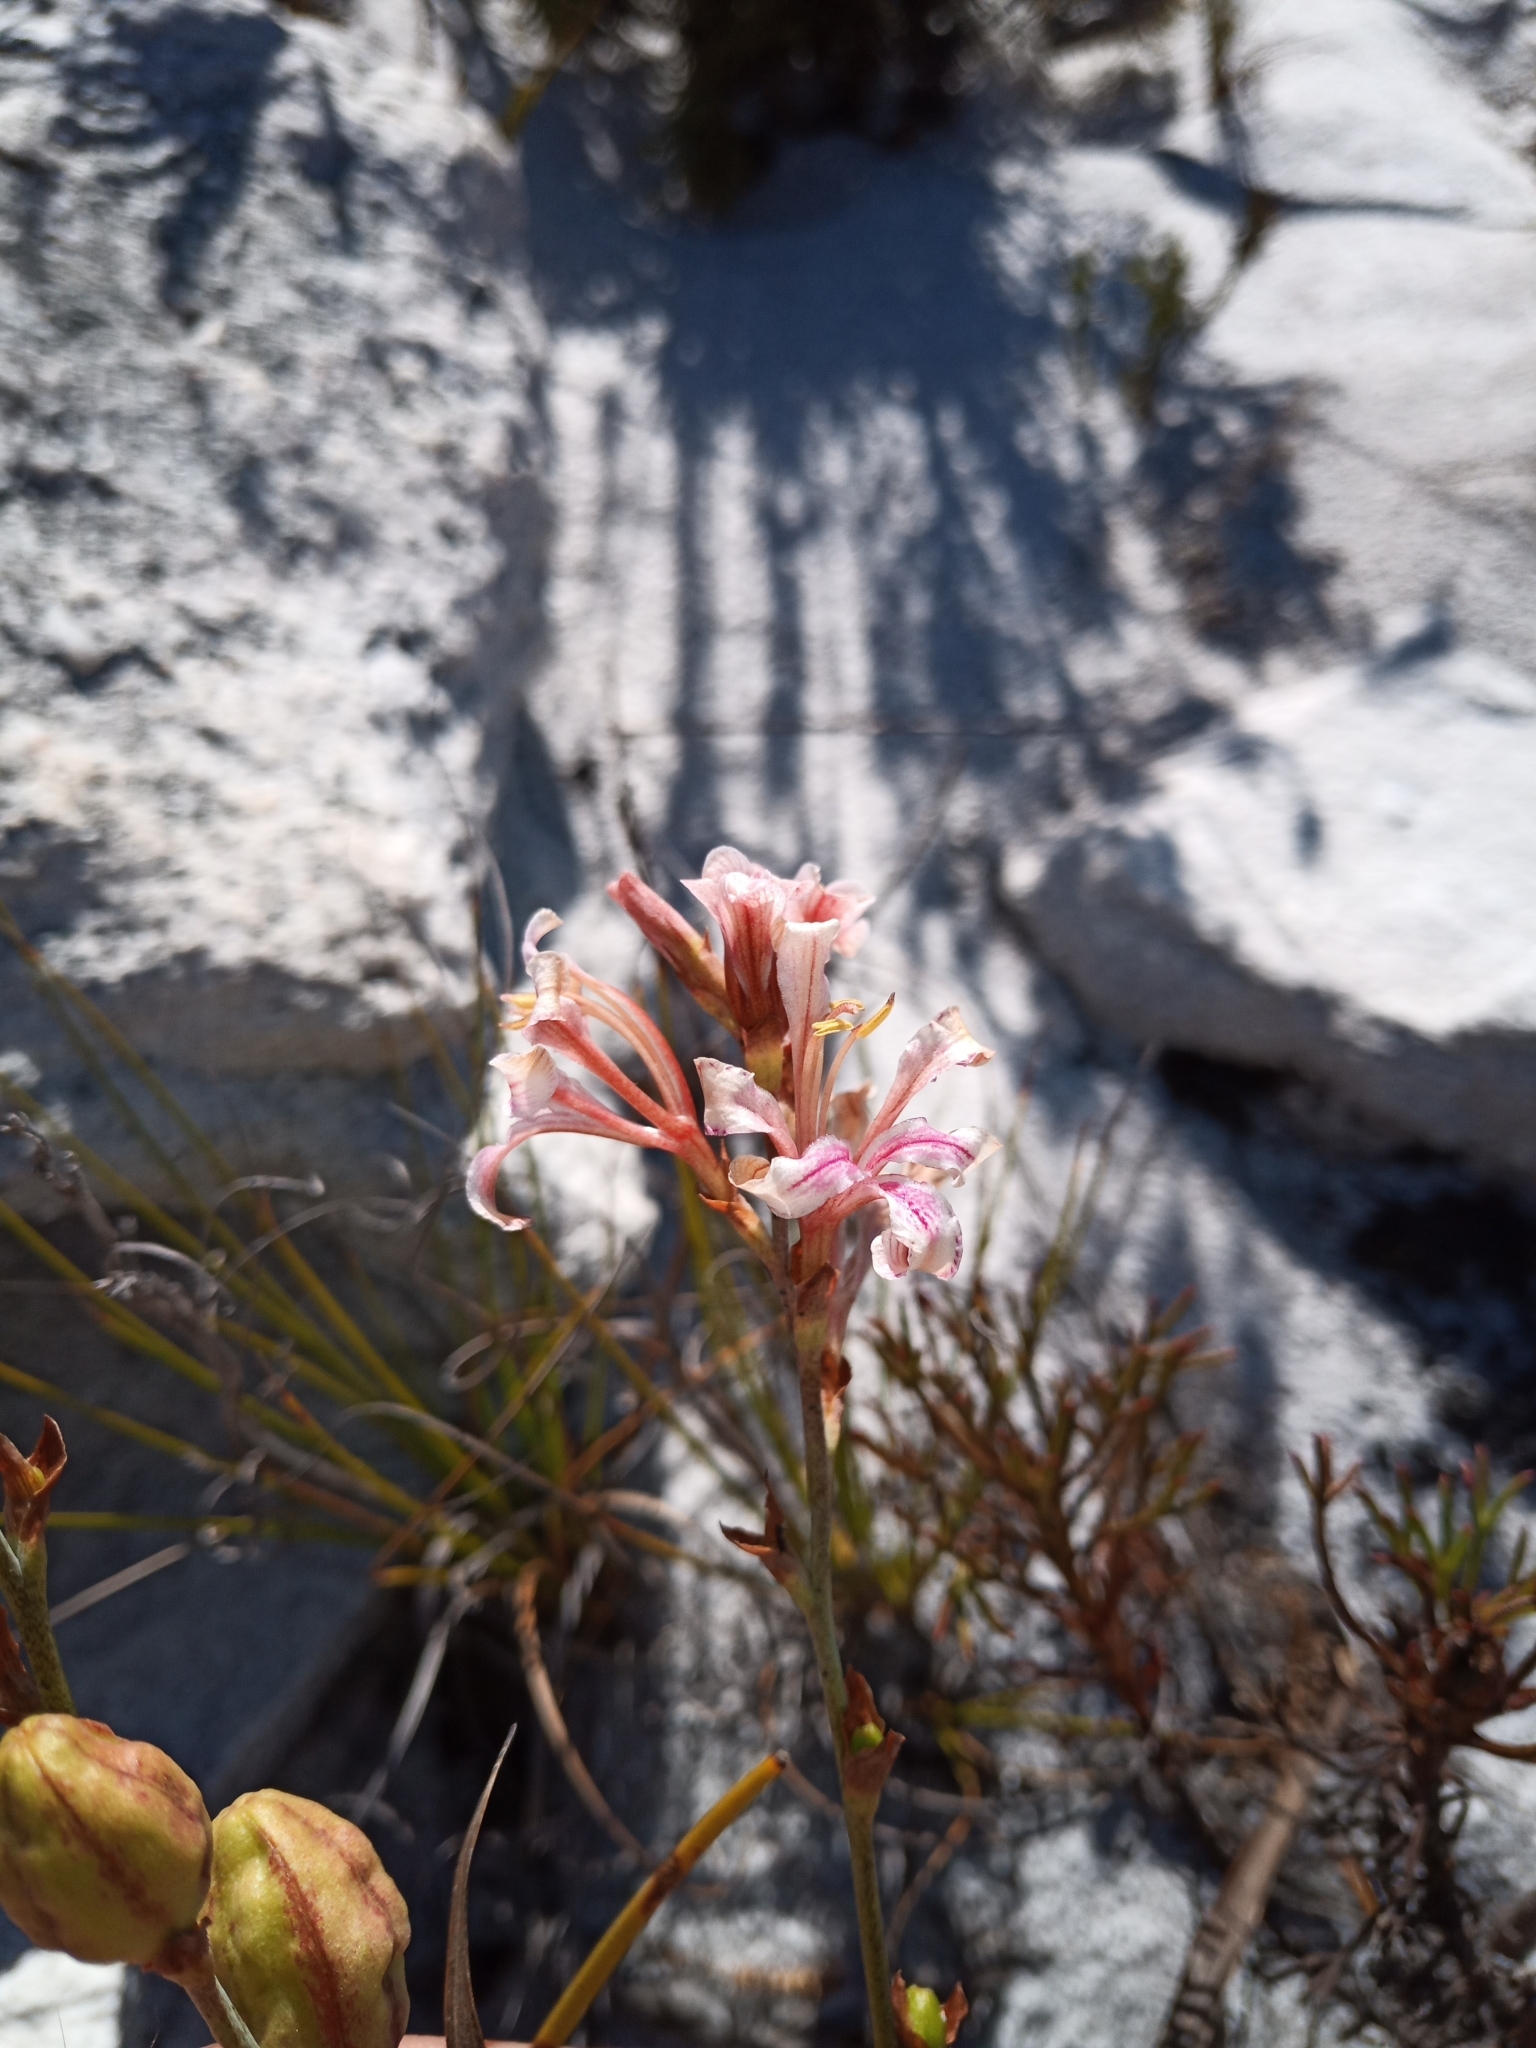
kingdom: Plantae
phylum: Tracheophyta
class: Liliopsida
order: Asparagales
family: Iridaceae
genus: Tritoniopsis
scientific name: Tritoniopsis dodii
